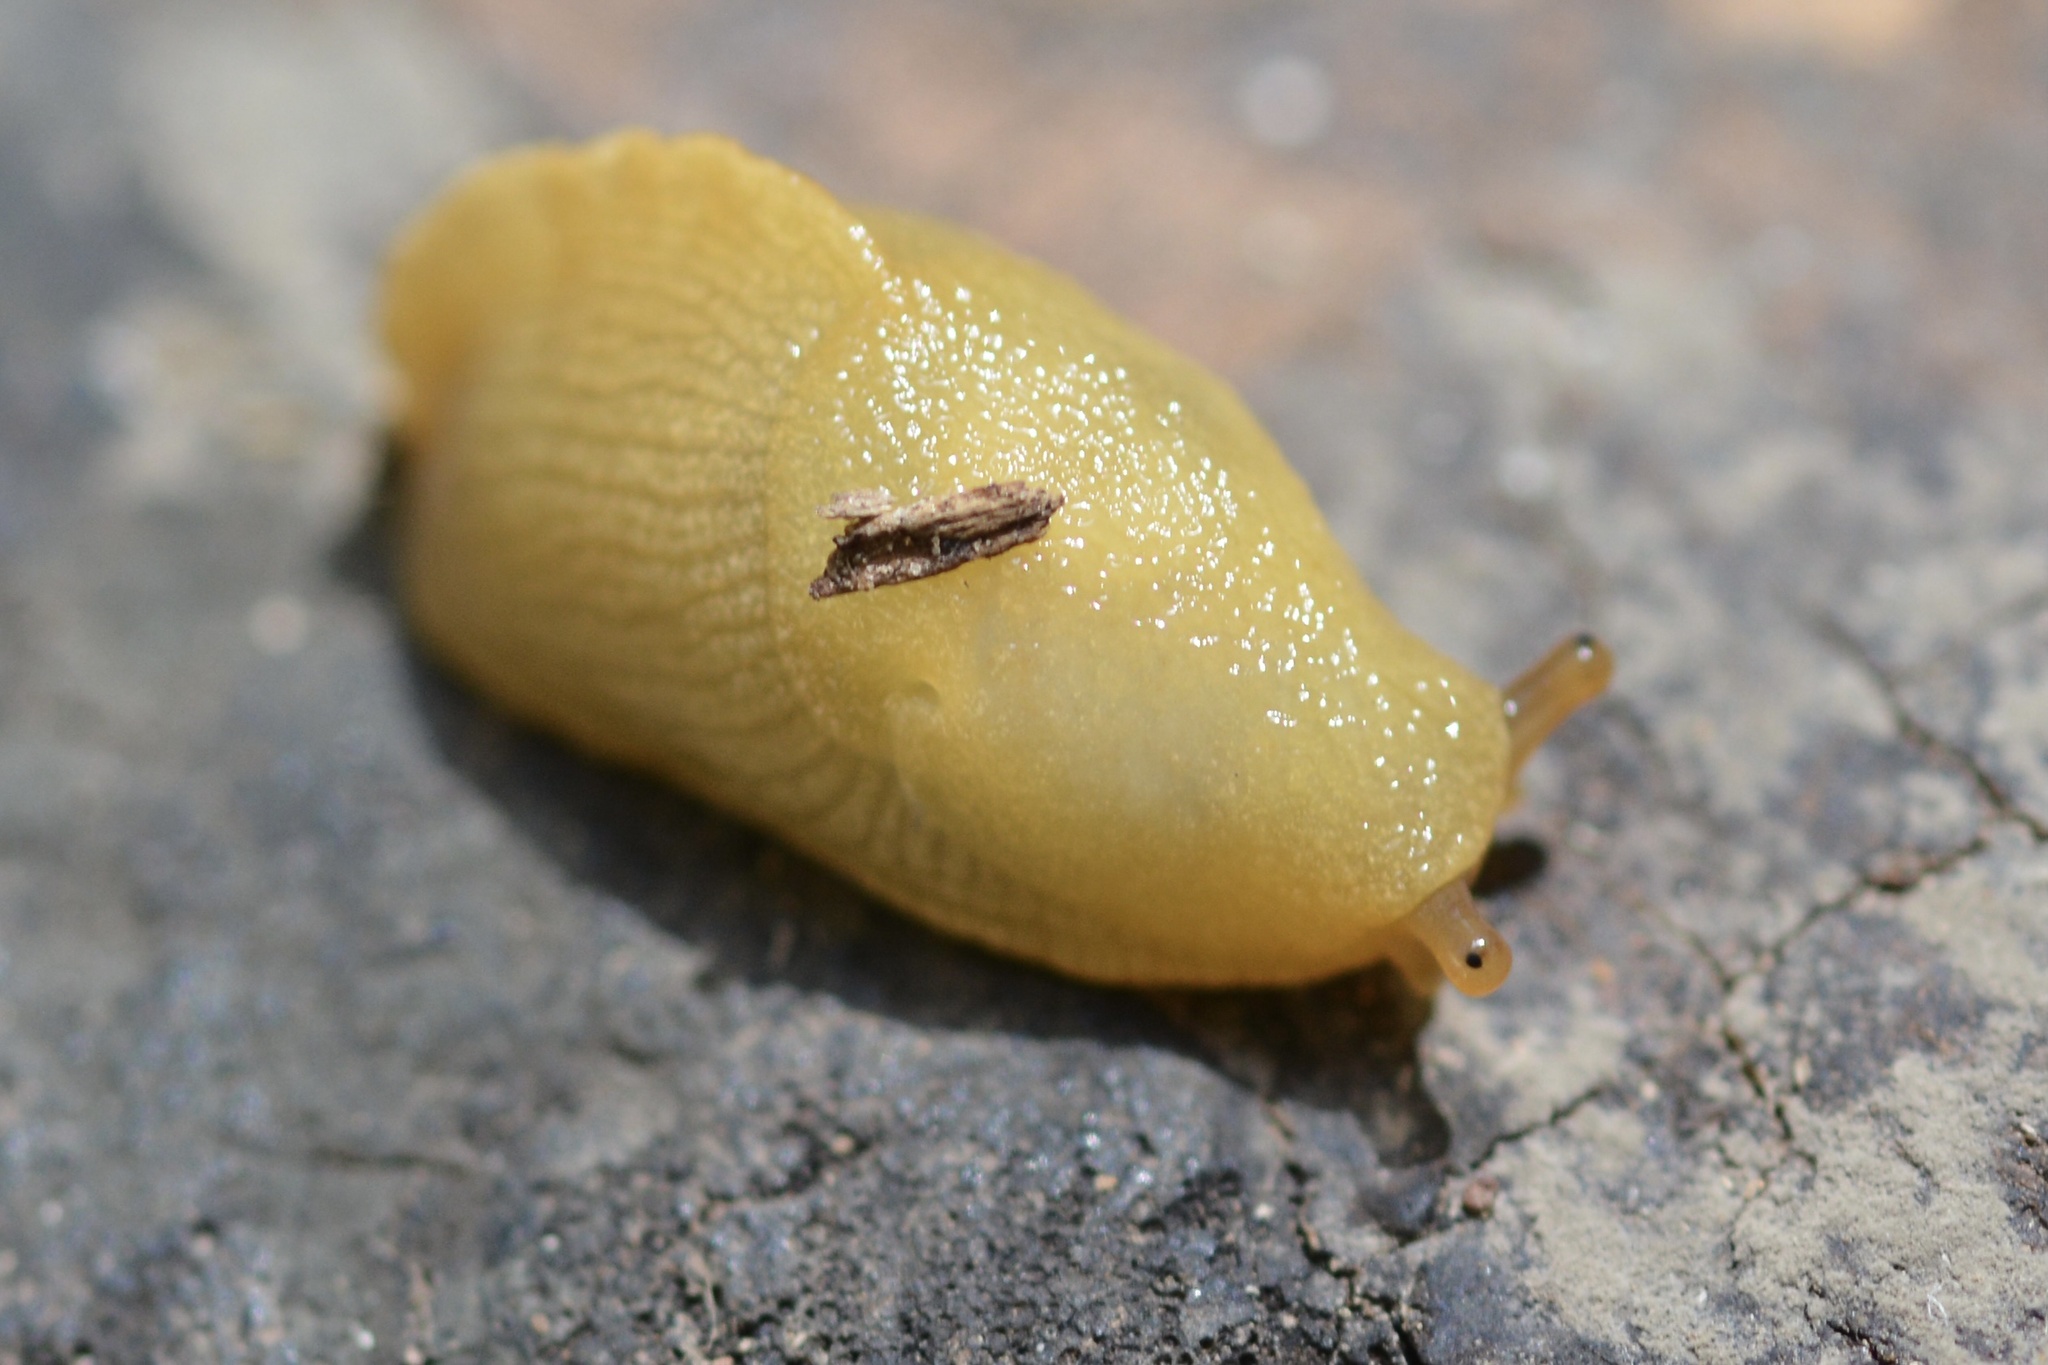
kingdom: Animalia
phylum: Mollusca
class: Gastropoda
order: Stylommatophora
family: Ariolimacidae
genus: Ariolimax
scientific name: Ariolimax californicus
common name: California banana slug
